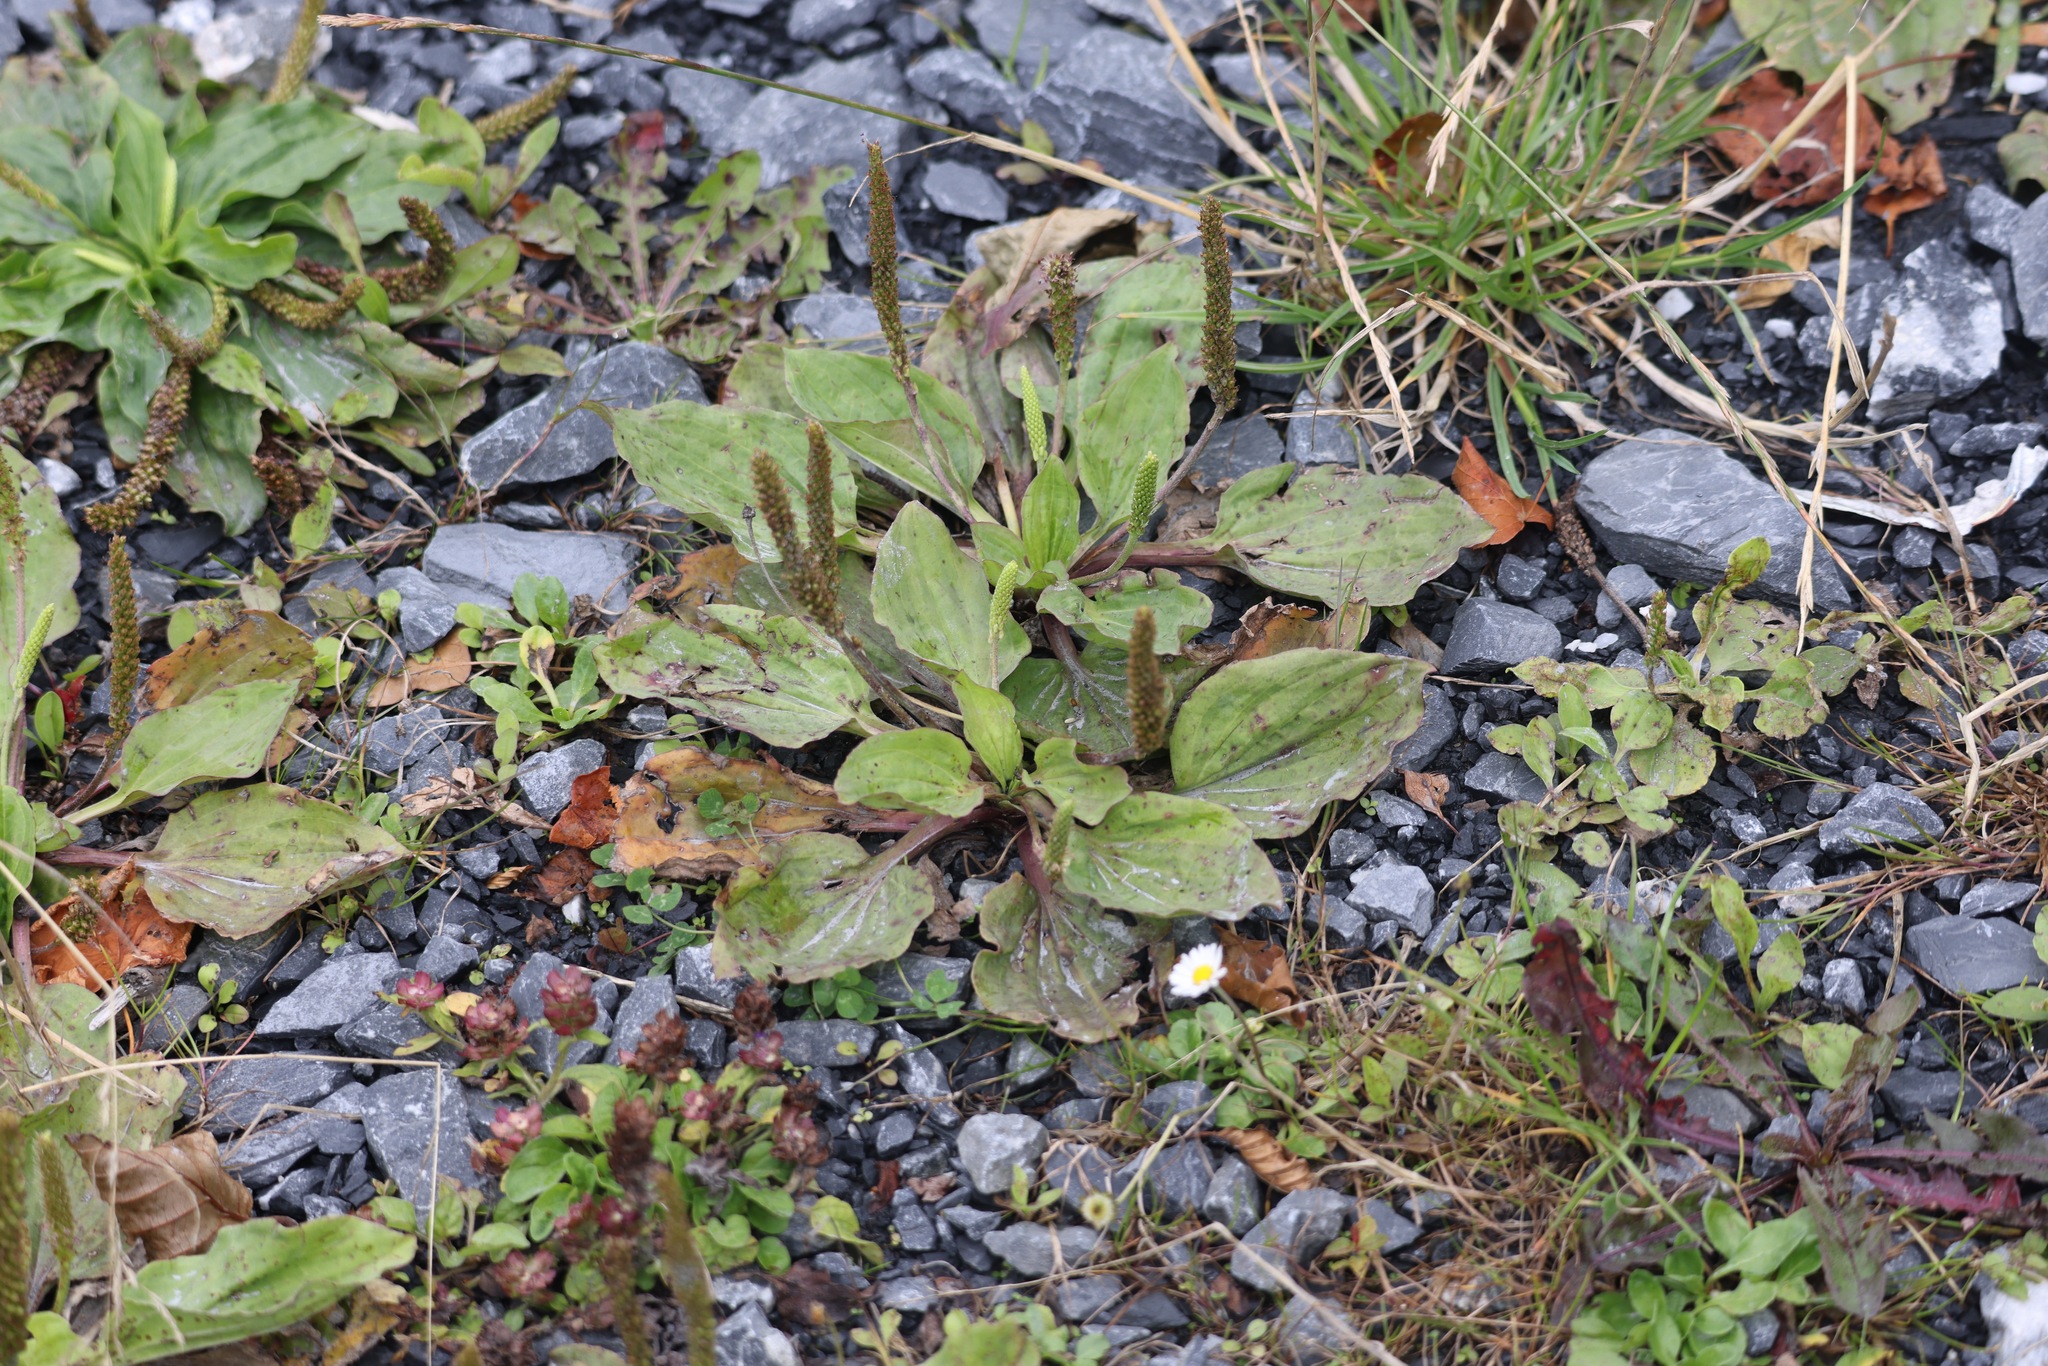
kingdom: Plantae
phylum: Tracheophyta
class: Magnoliopsida
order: Lamiales
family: Plantaginaceae
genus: Plantago
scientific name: Plantago major
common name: Common plantain
